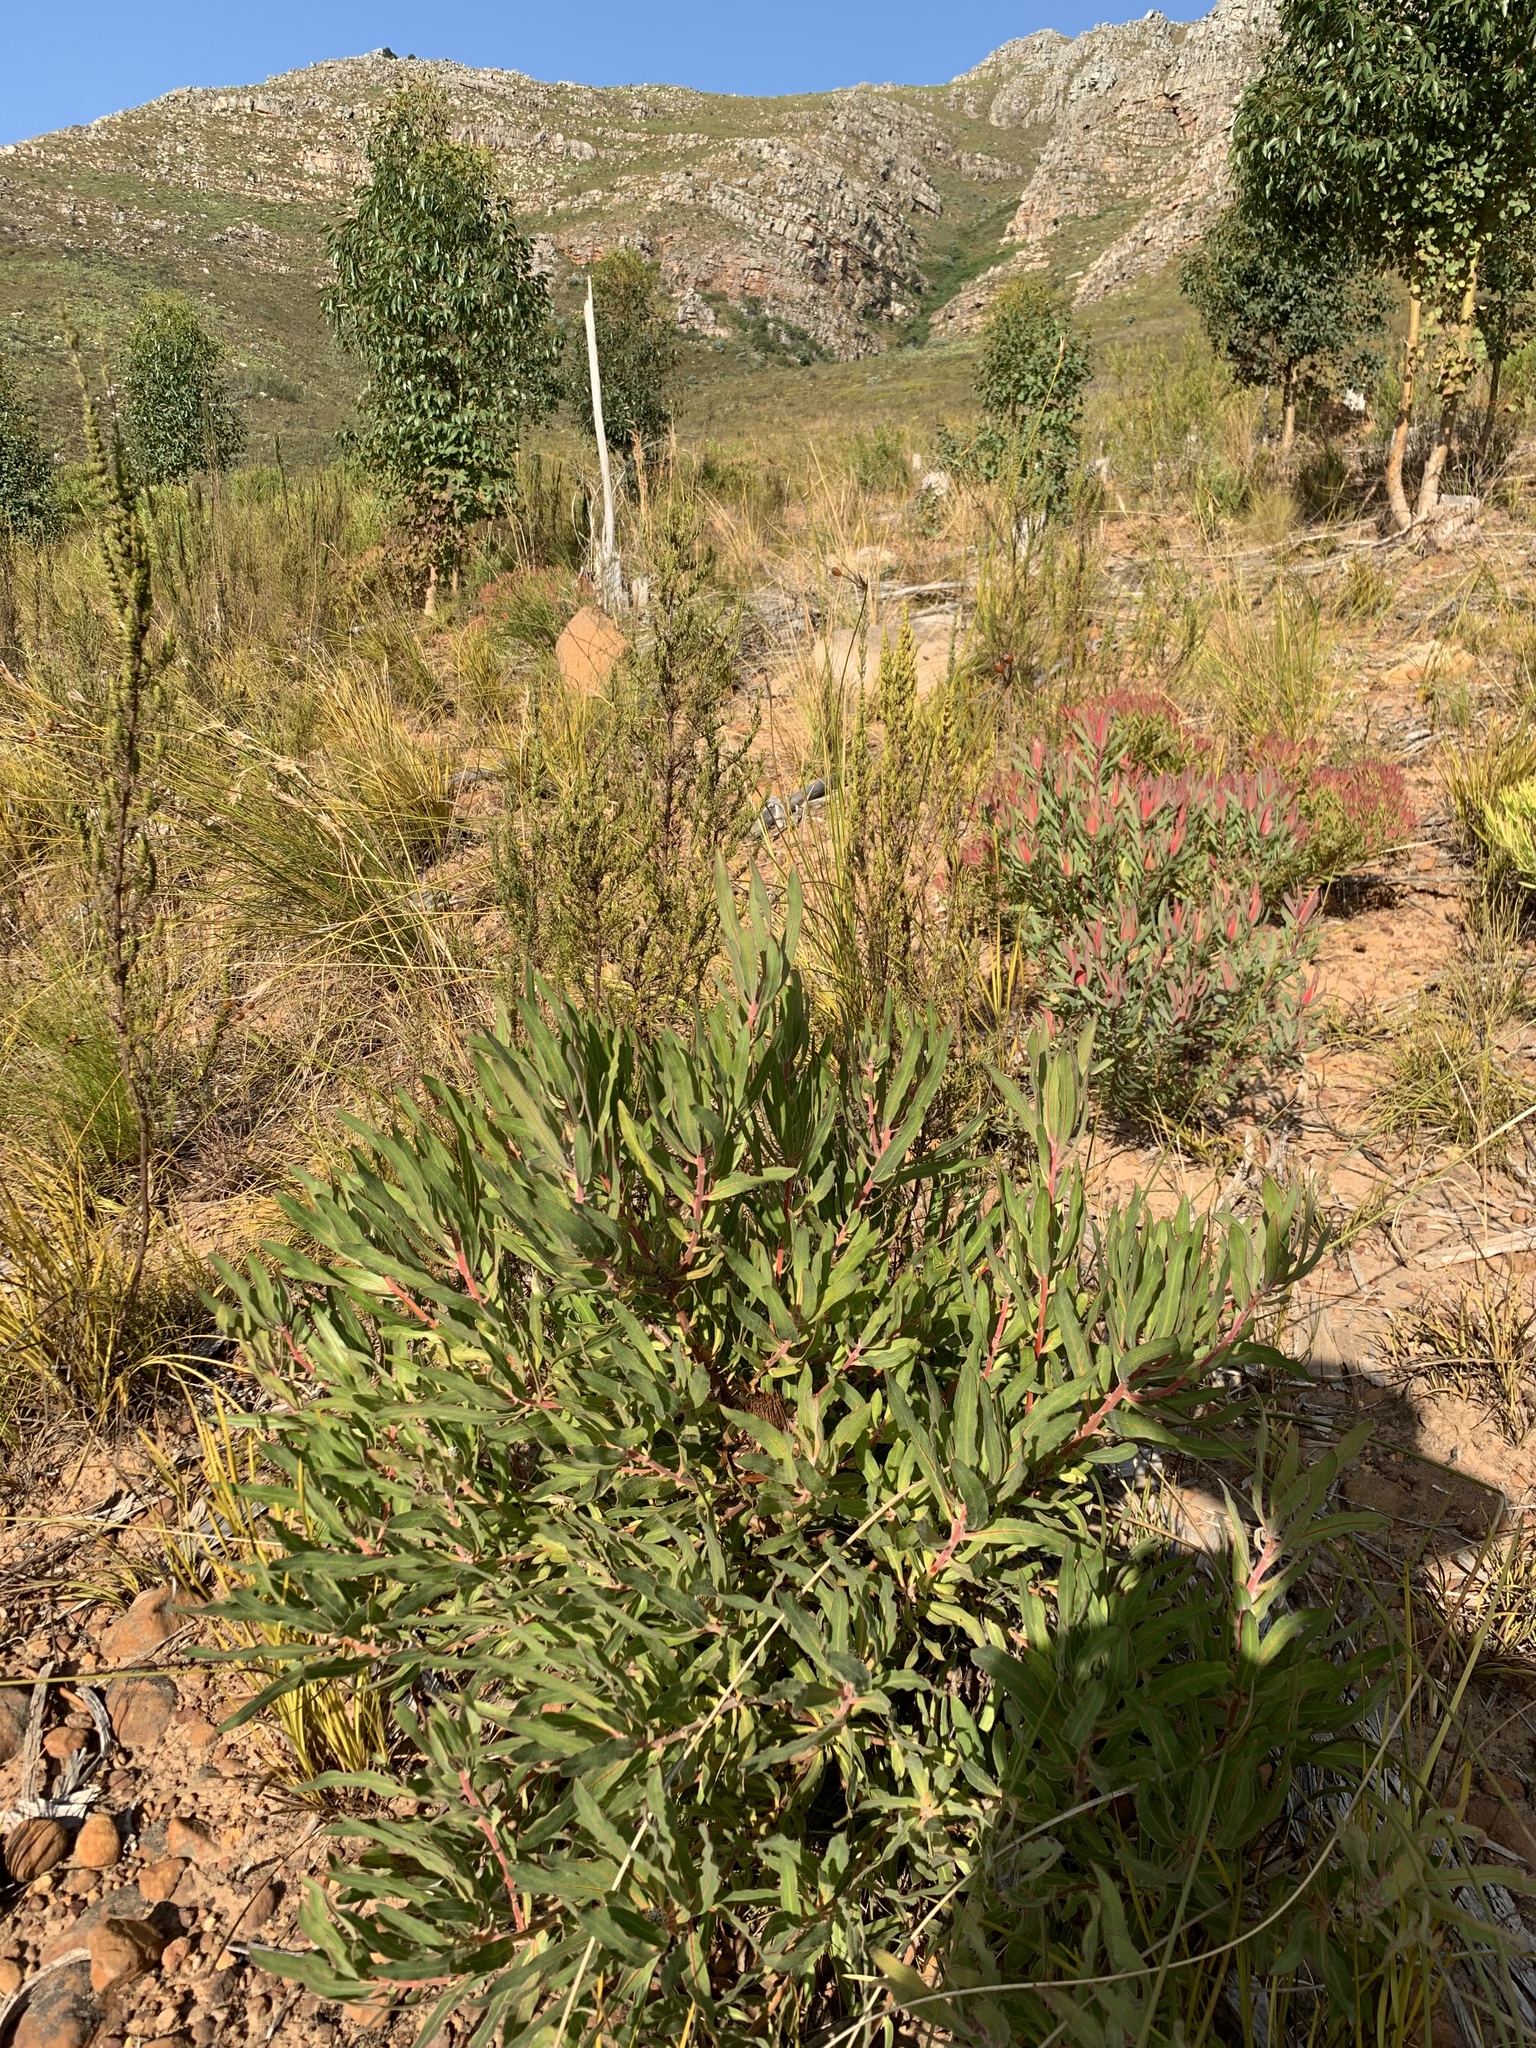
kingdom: Plantae
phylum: Tracheophyta
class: Magnoliopsida
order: Proteales
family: Proteaceae
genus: Protea
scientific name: Protea burchellii
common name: Burchell's sugarbush
